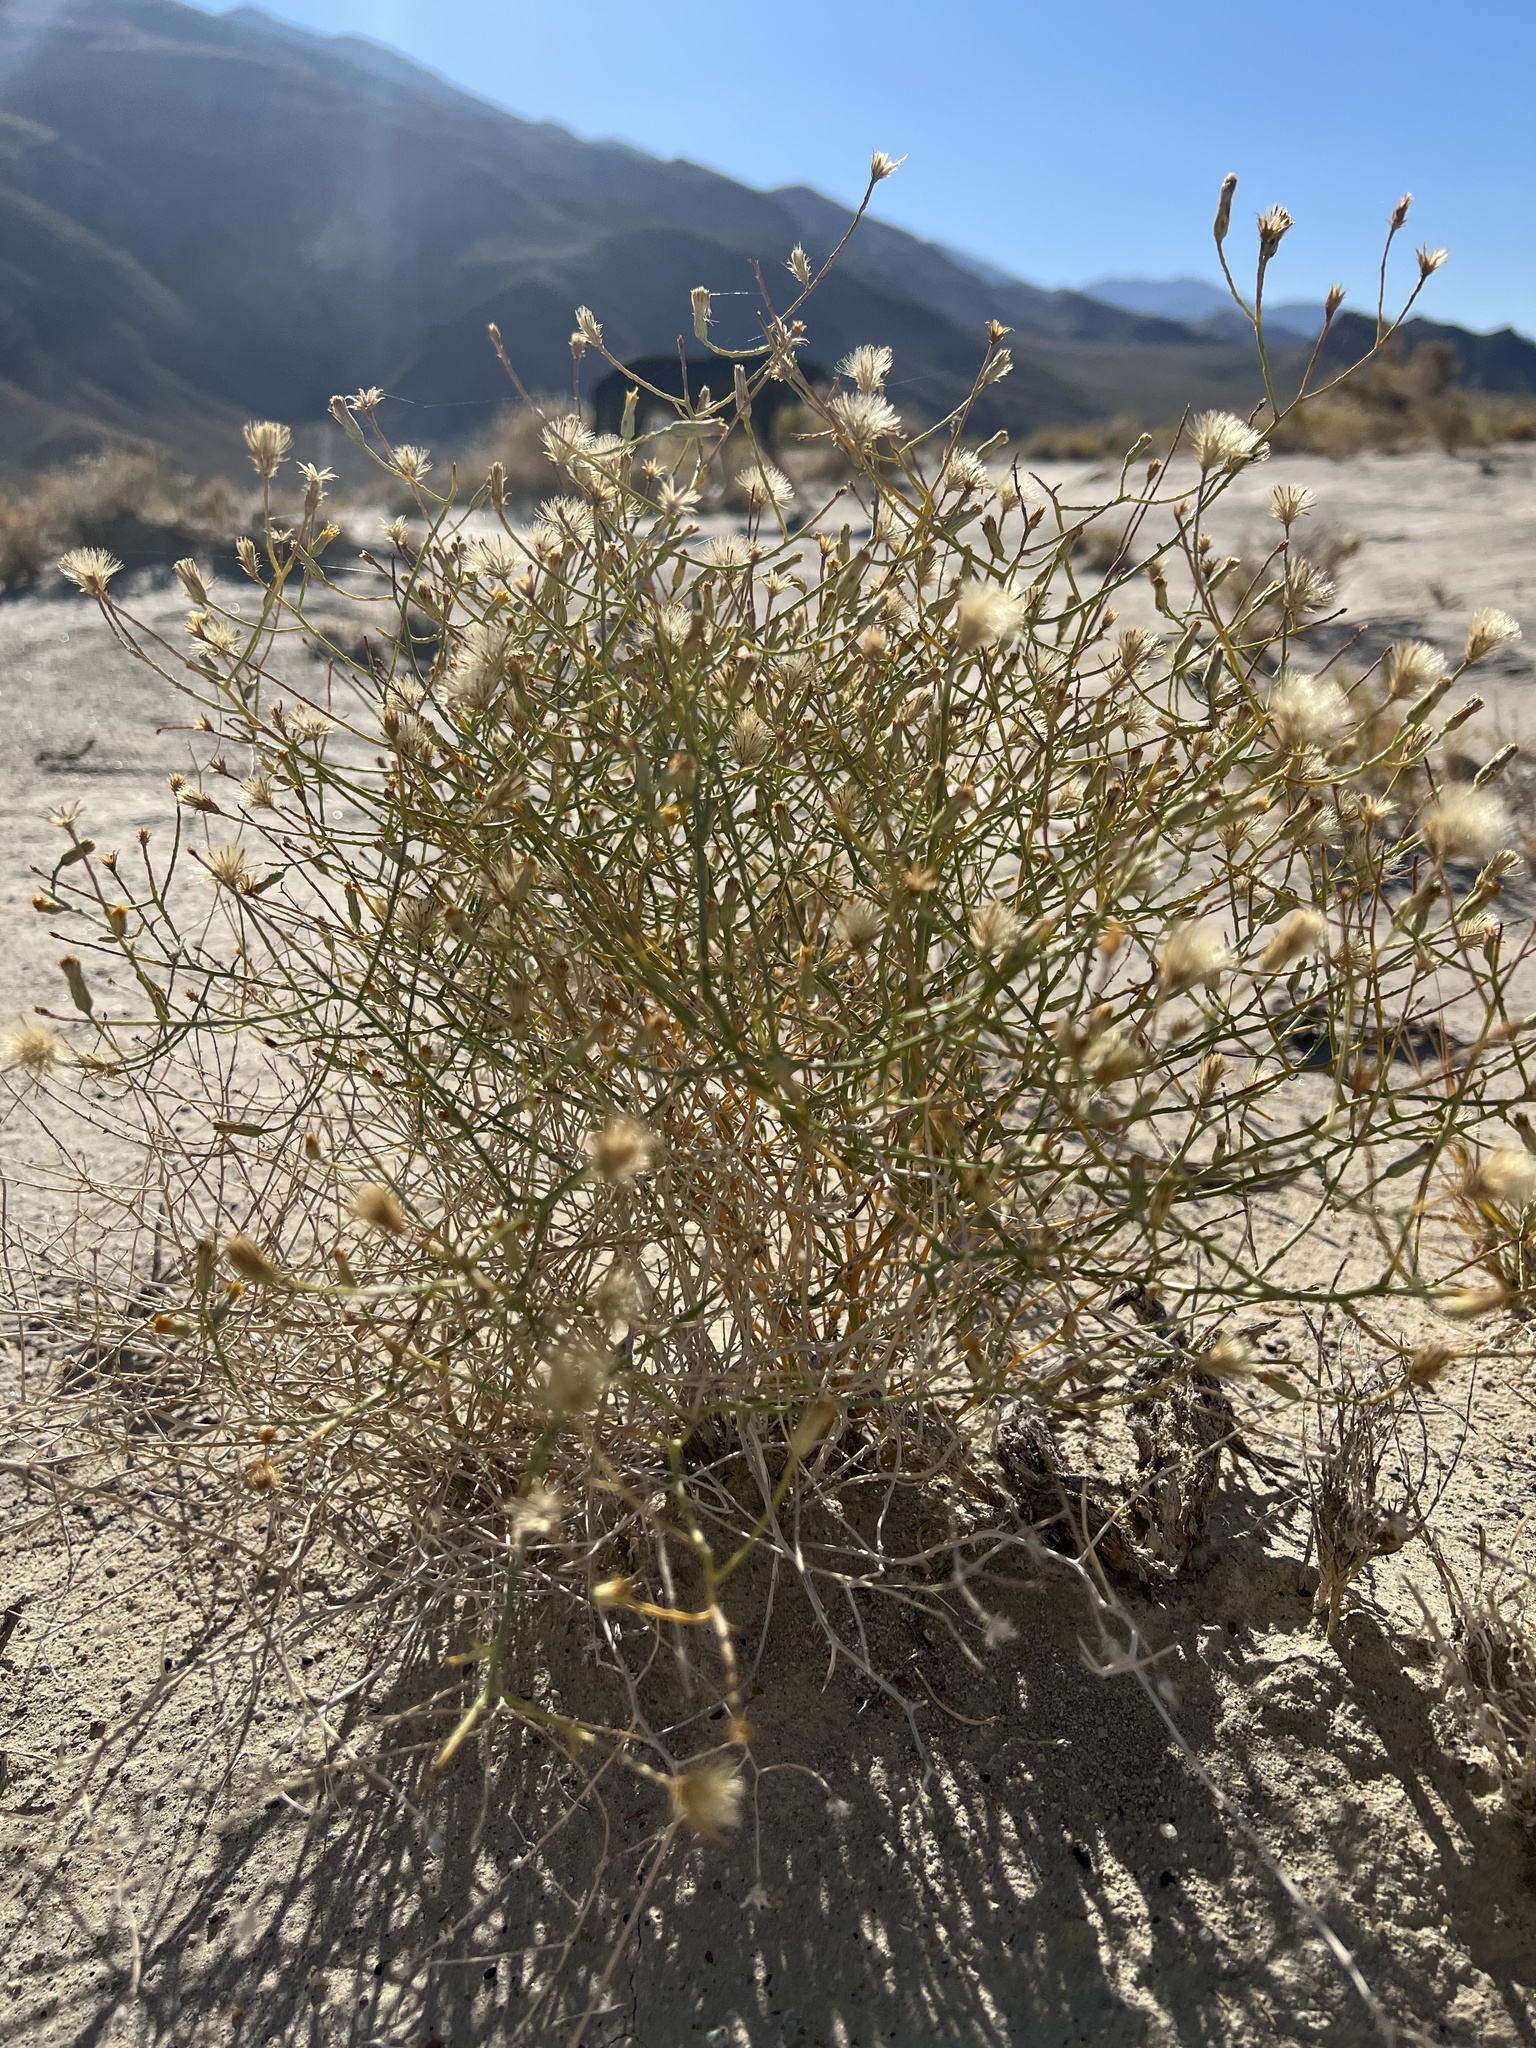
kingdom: Plantae
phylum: Tracheophyta
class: Magnoliopsida
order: Asterales
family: Asteraceae
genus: Leucosyris
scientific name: Leucosyris carnosa
